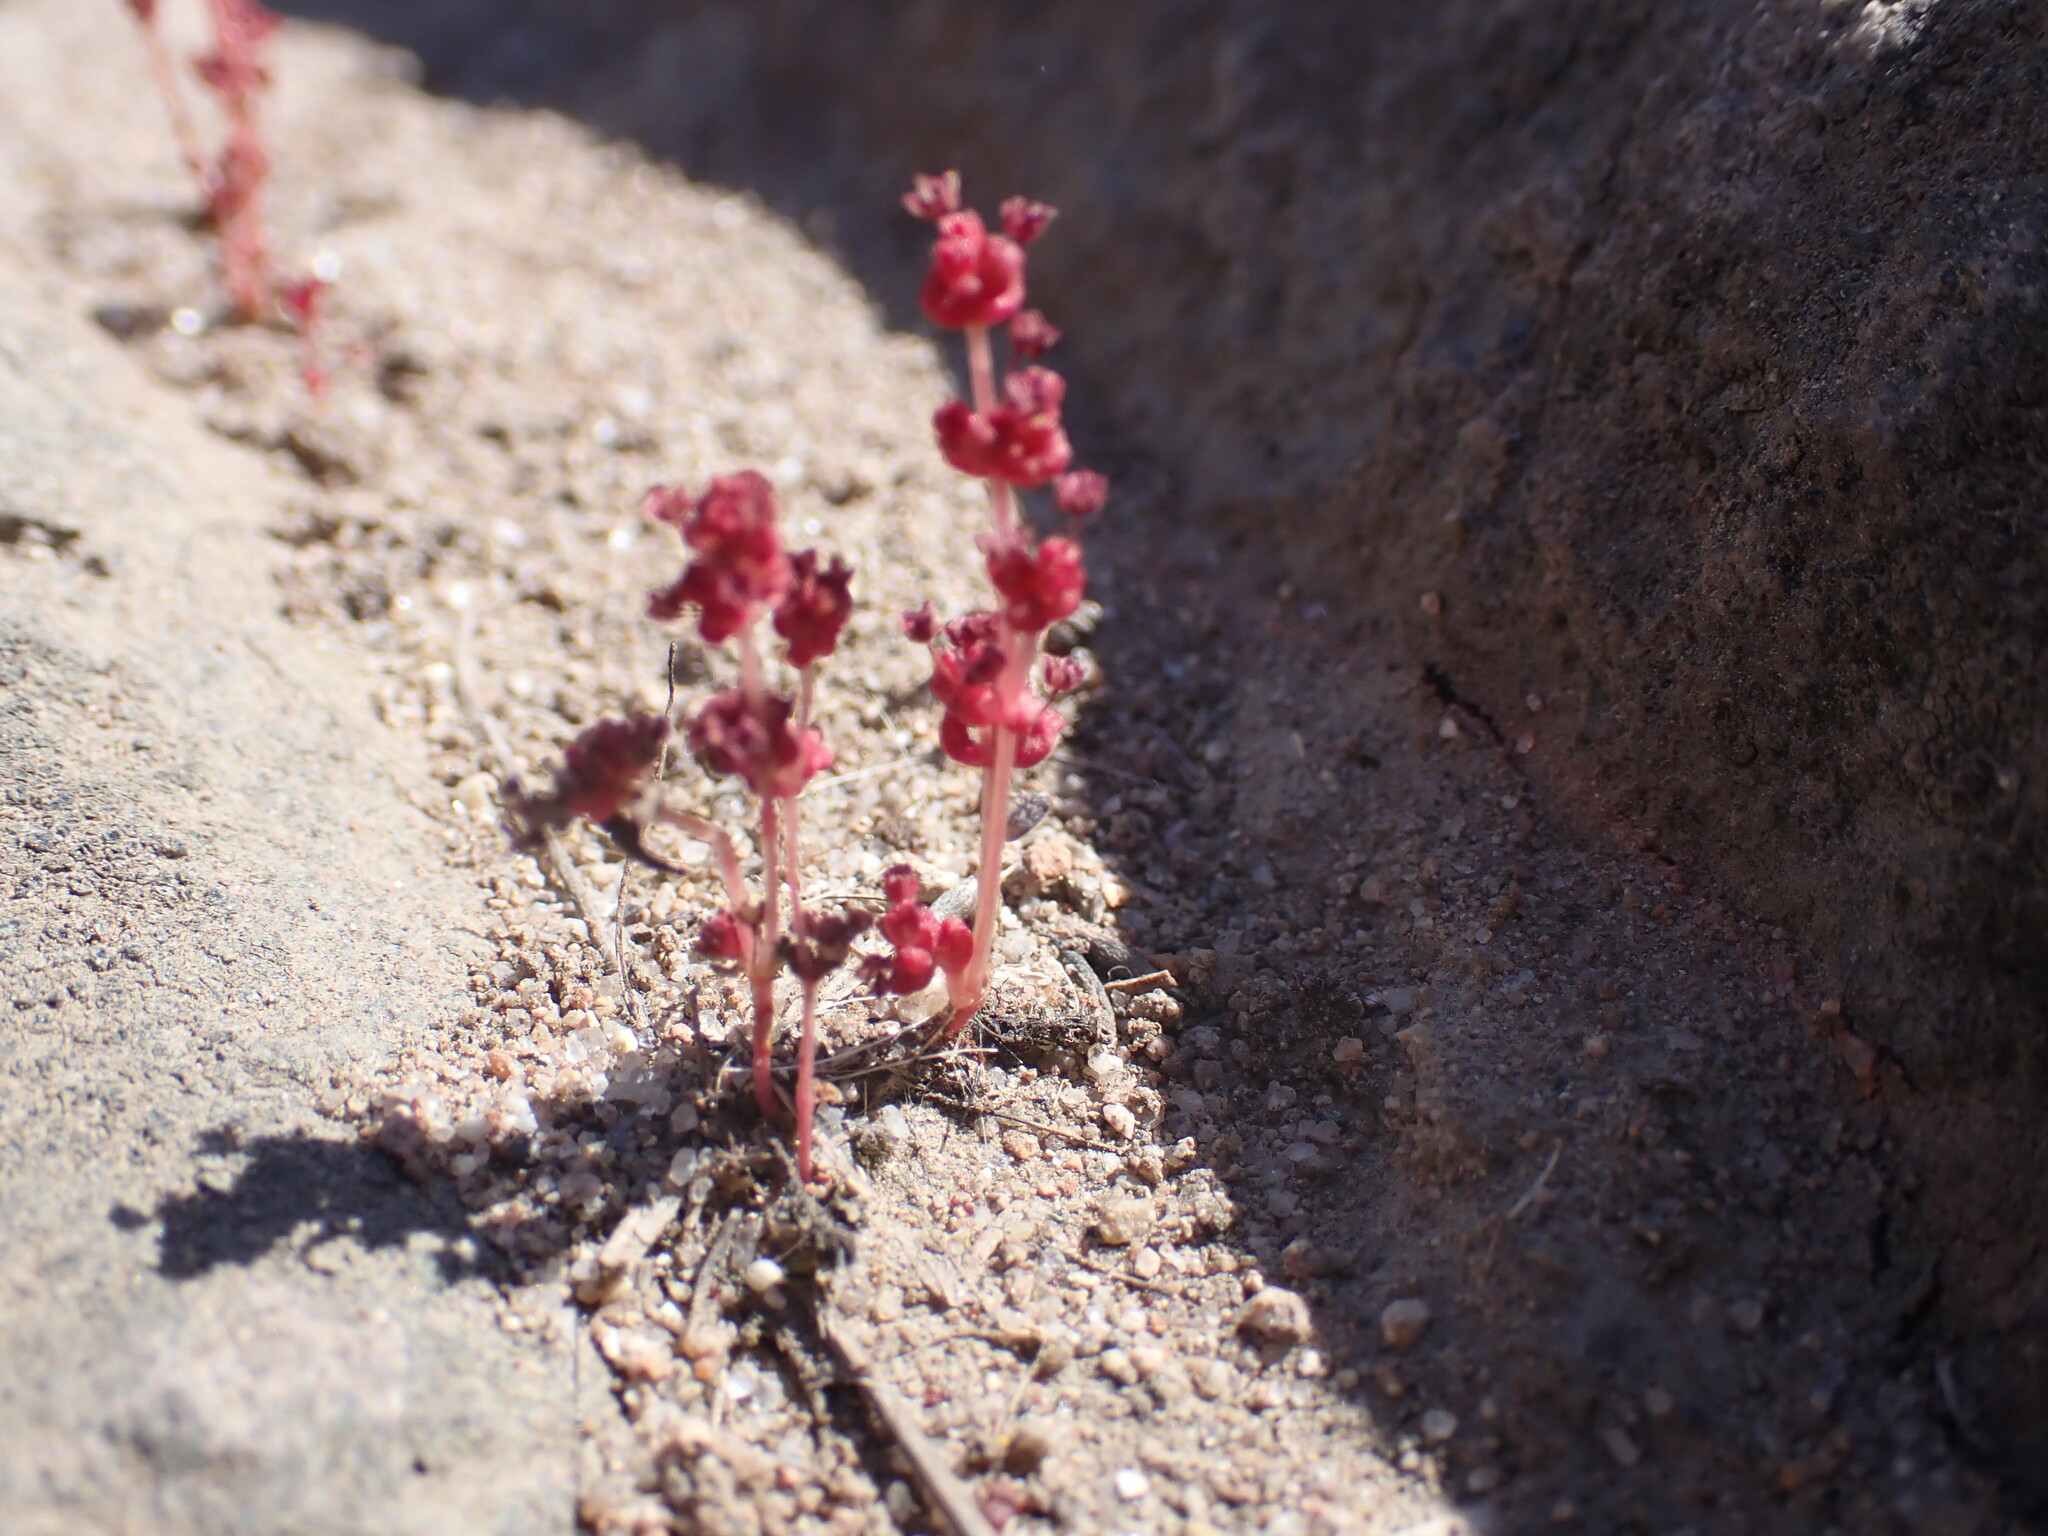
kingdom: Plantae
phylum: Tracheophyta
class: Magnoliopsida
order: Saxifragales
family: Crassulaceae
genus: Crassula
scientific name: Crassula connata
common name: Erect pygmyweed
